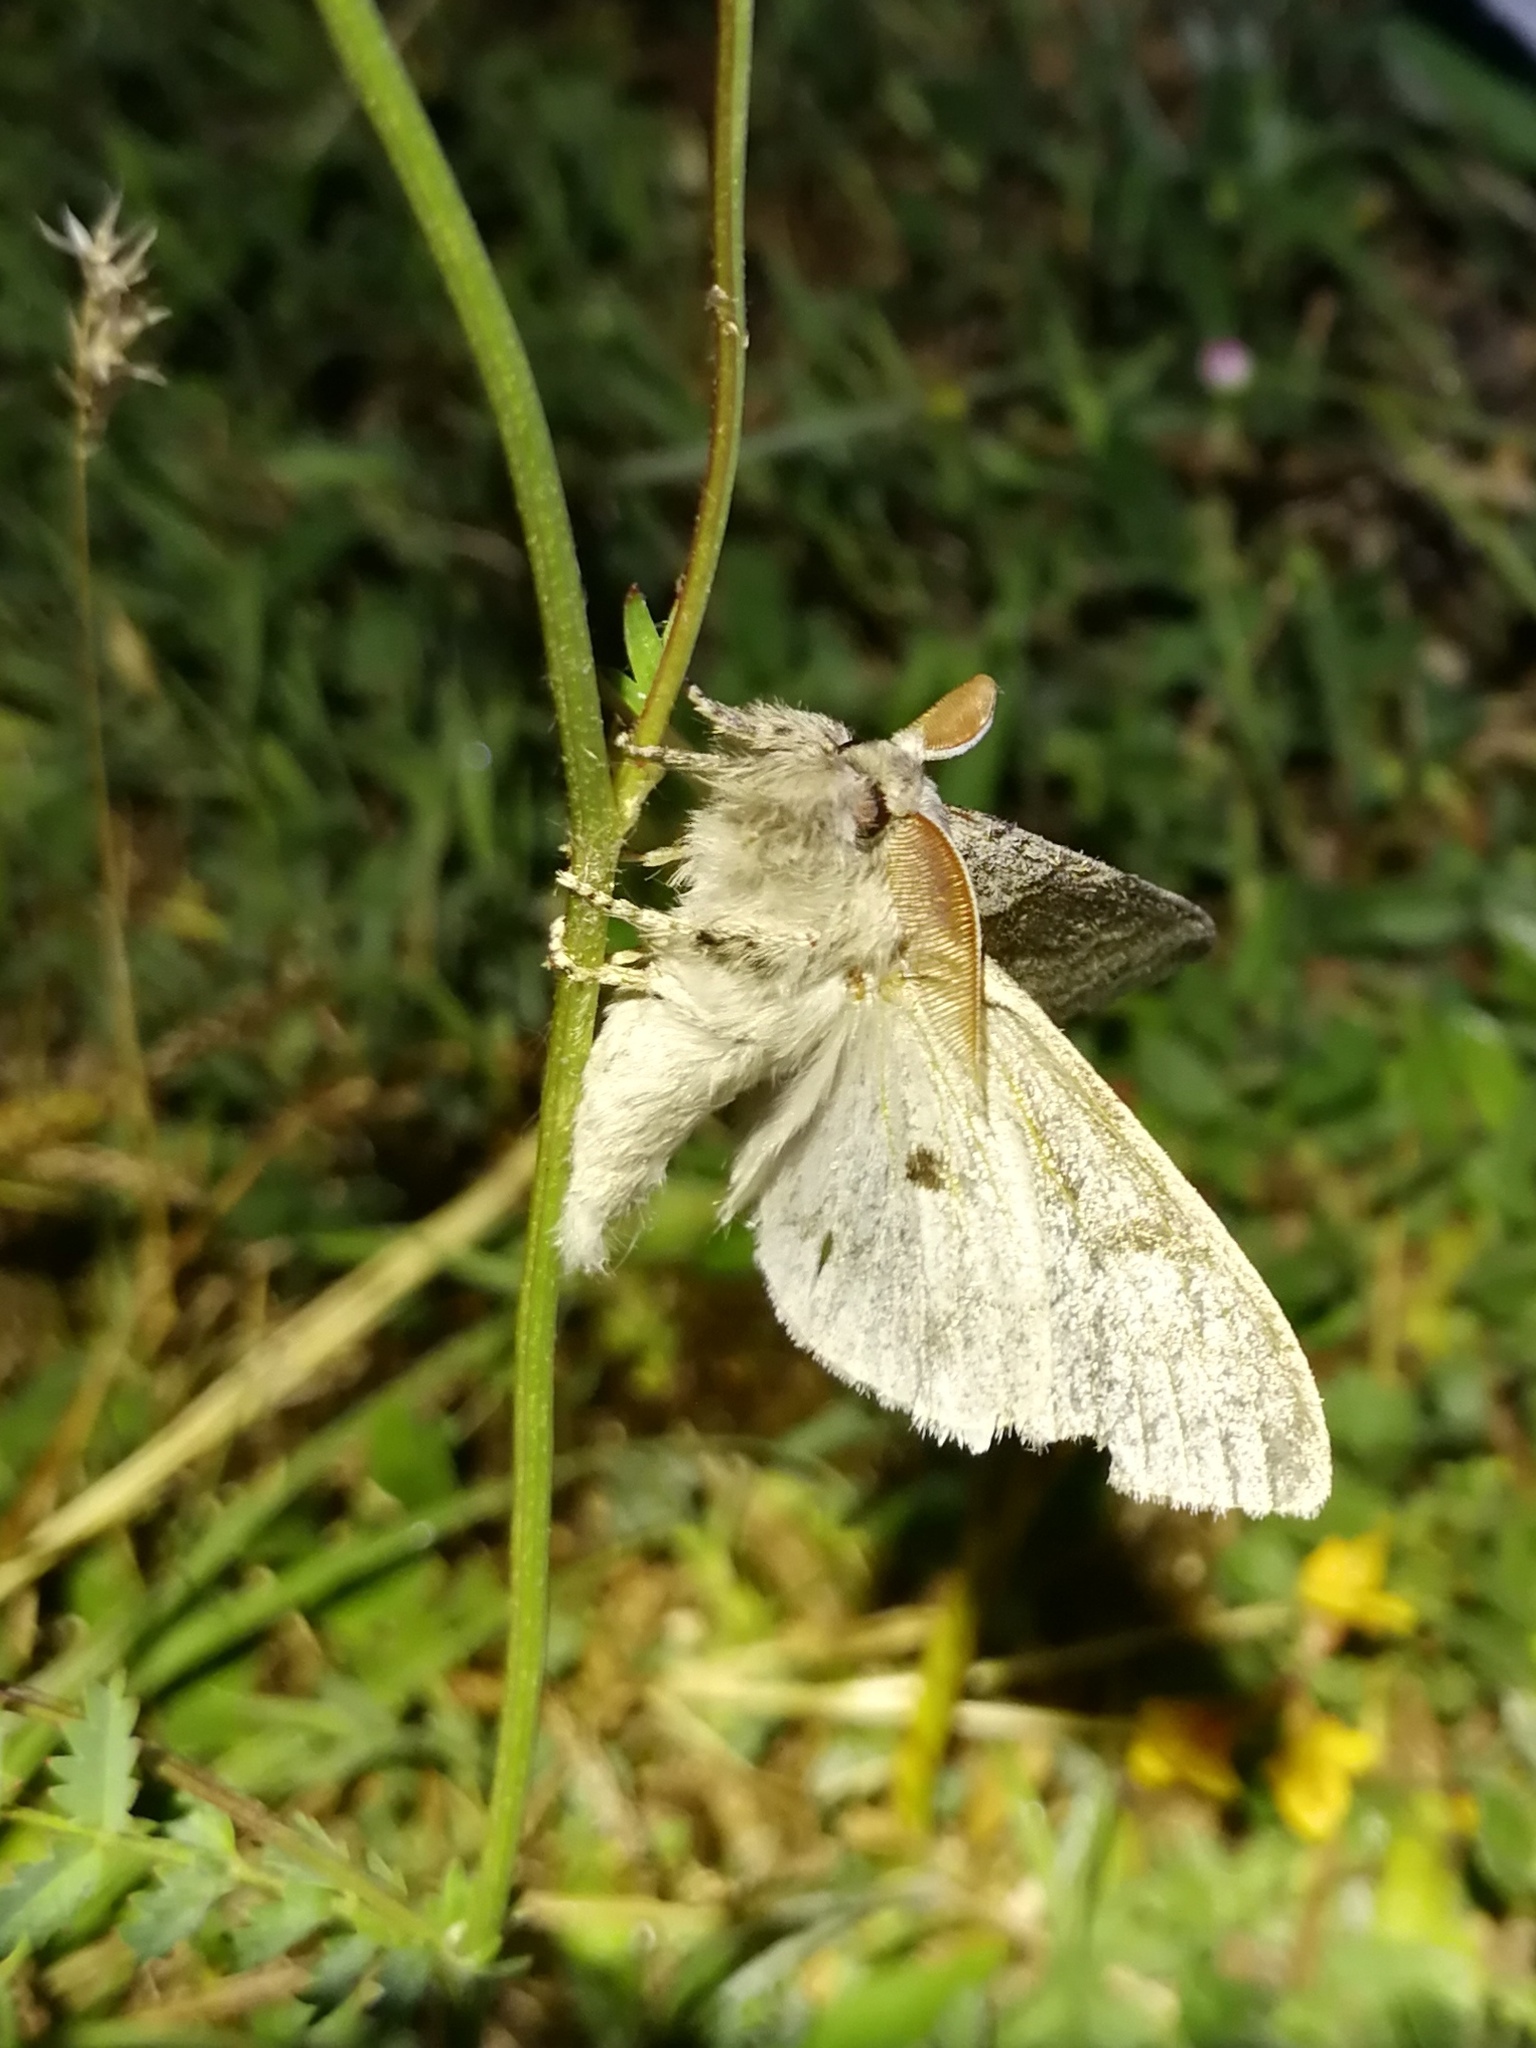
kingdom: Animalia
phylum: Arthropoda
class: Insecta
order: Lepidoptera
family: Erebidae
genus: Calliteara
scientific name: Calliteara pudibunda
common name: Pale tussock
